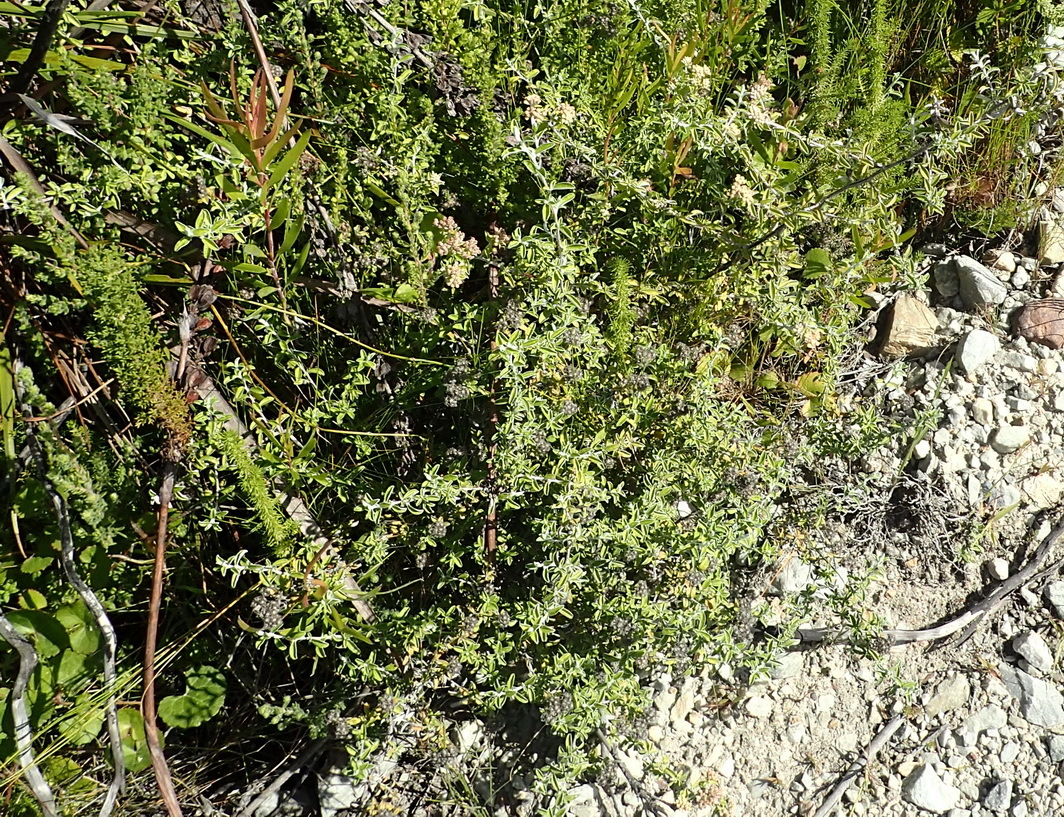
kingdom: Plantae
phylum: Tracheophyta
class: Magnoliopsida
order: Asterales
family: Asteraceae
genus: Plecostachys
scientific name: Plecostachys serpyllifolia
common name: Petite licorice
